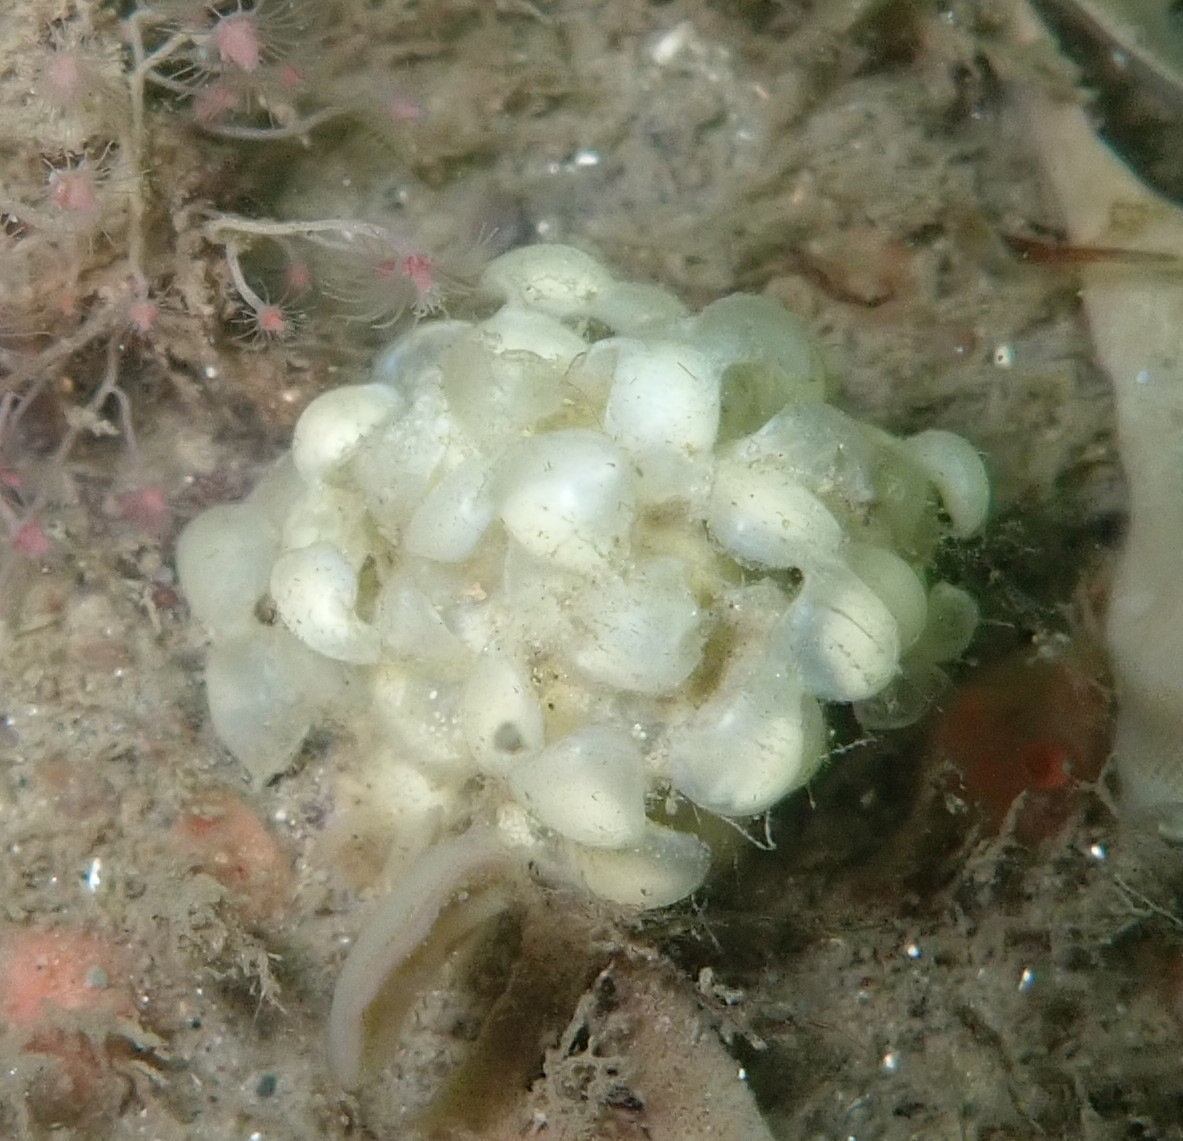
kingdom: Animalia
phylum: Mollusca
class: Gastropoda
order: Neogastropoda
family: Buccinidae
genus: Buccinum
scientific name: Buccinum undatum
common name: Common whelk
